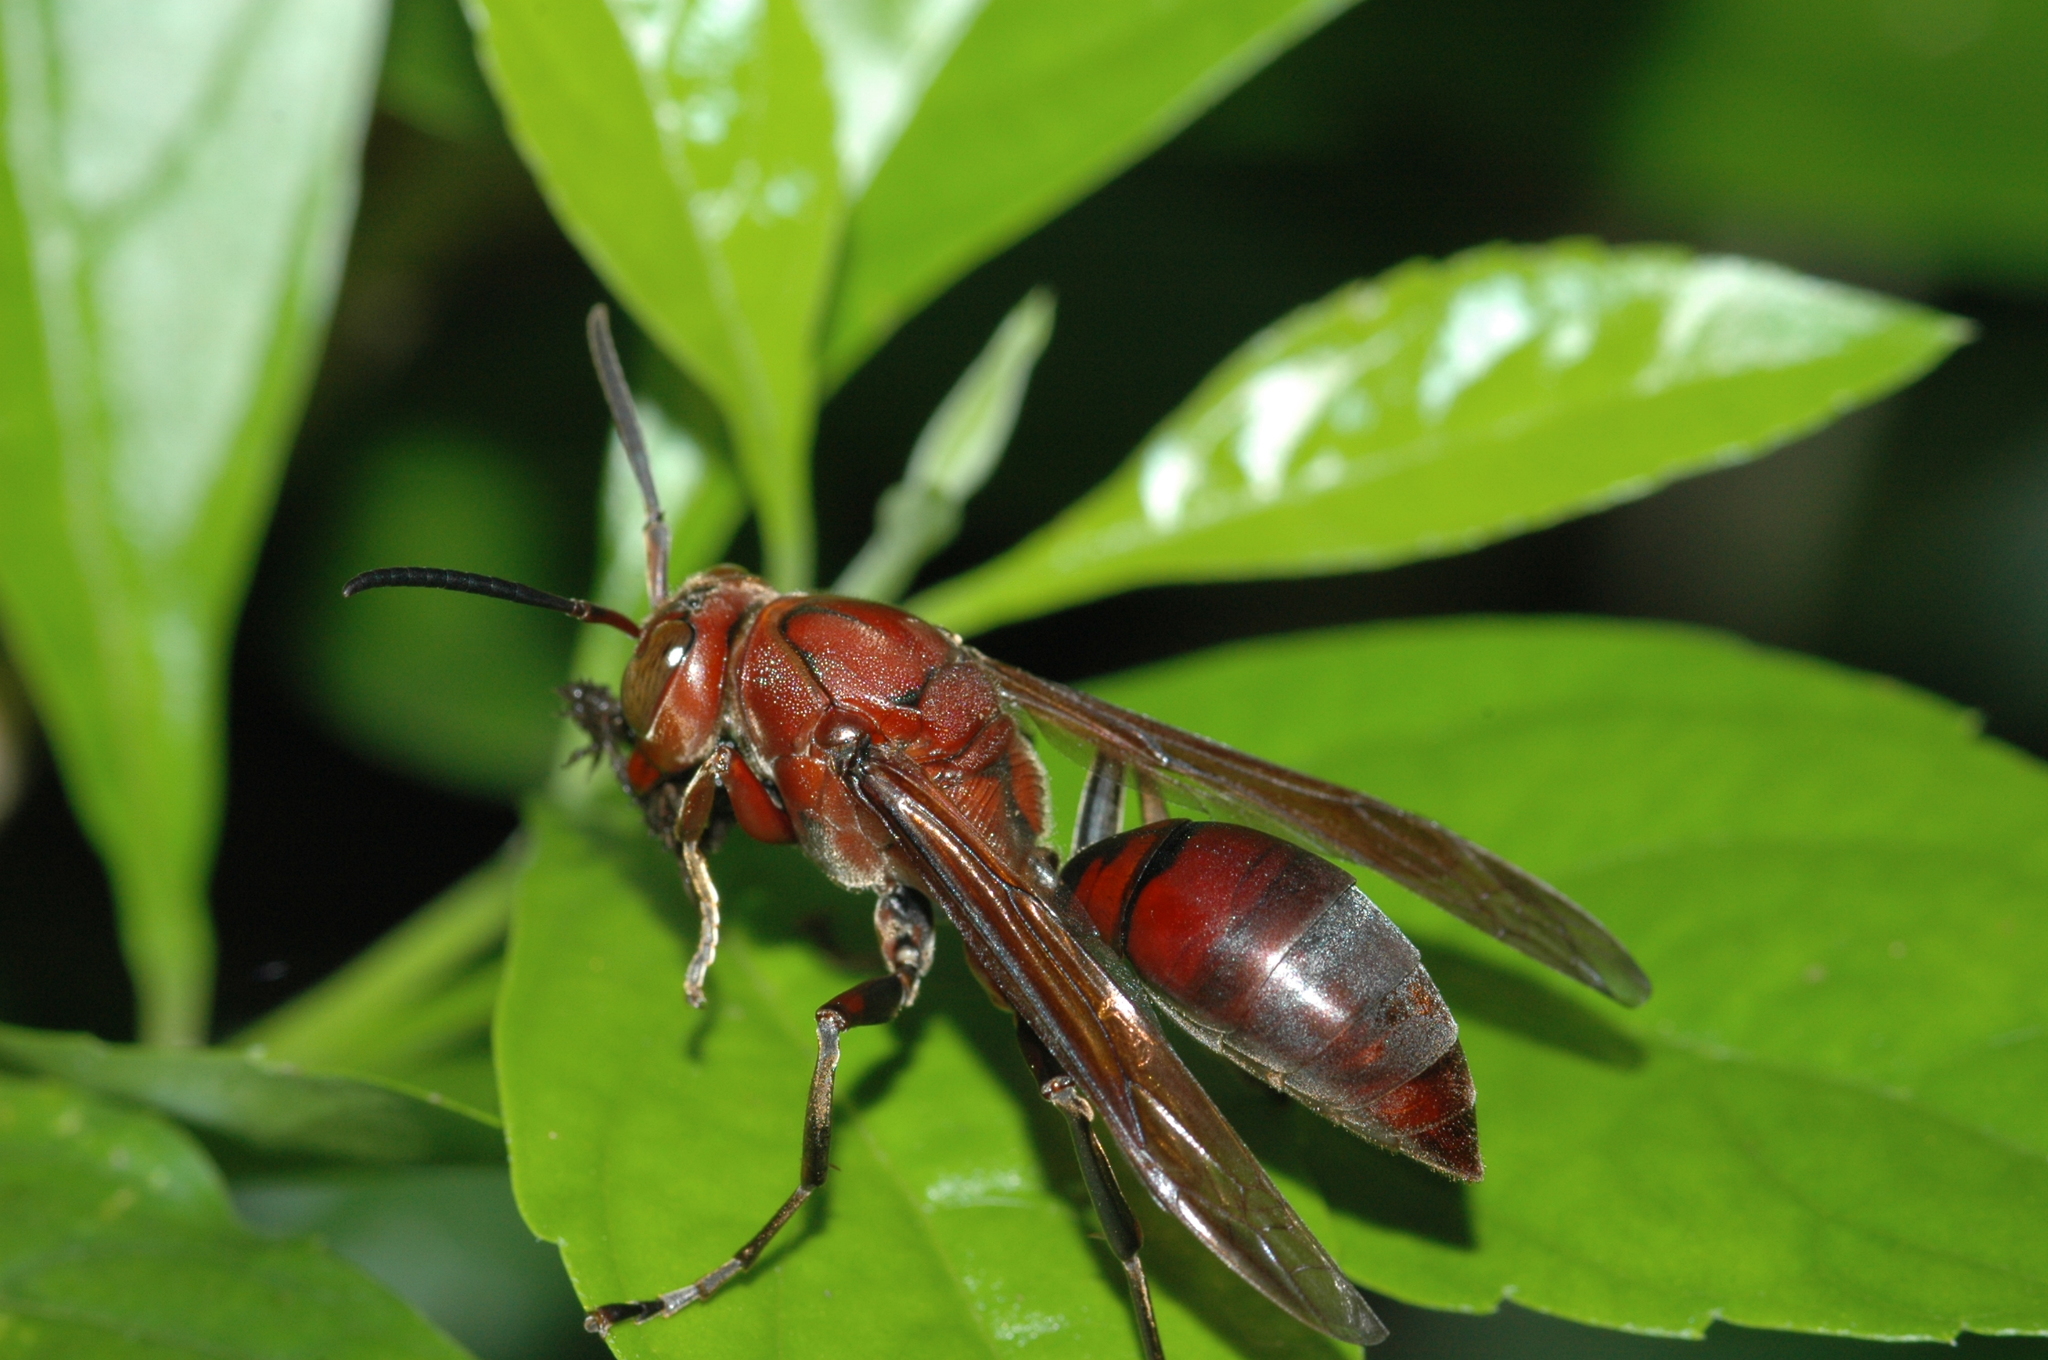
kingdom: Animalia
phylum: Arthropoda
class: Insecta
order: Hymenoptera
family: Eumenidae
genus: Polistes
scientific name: Polistes tenebricosus
